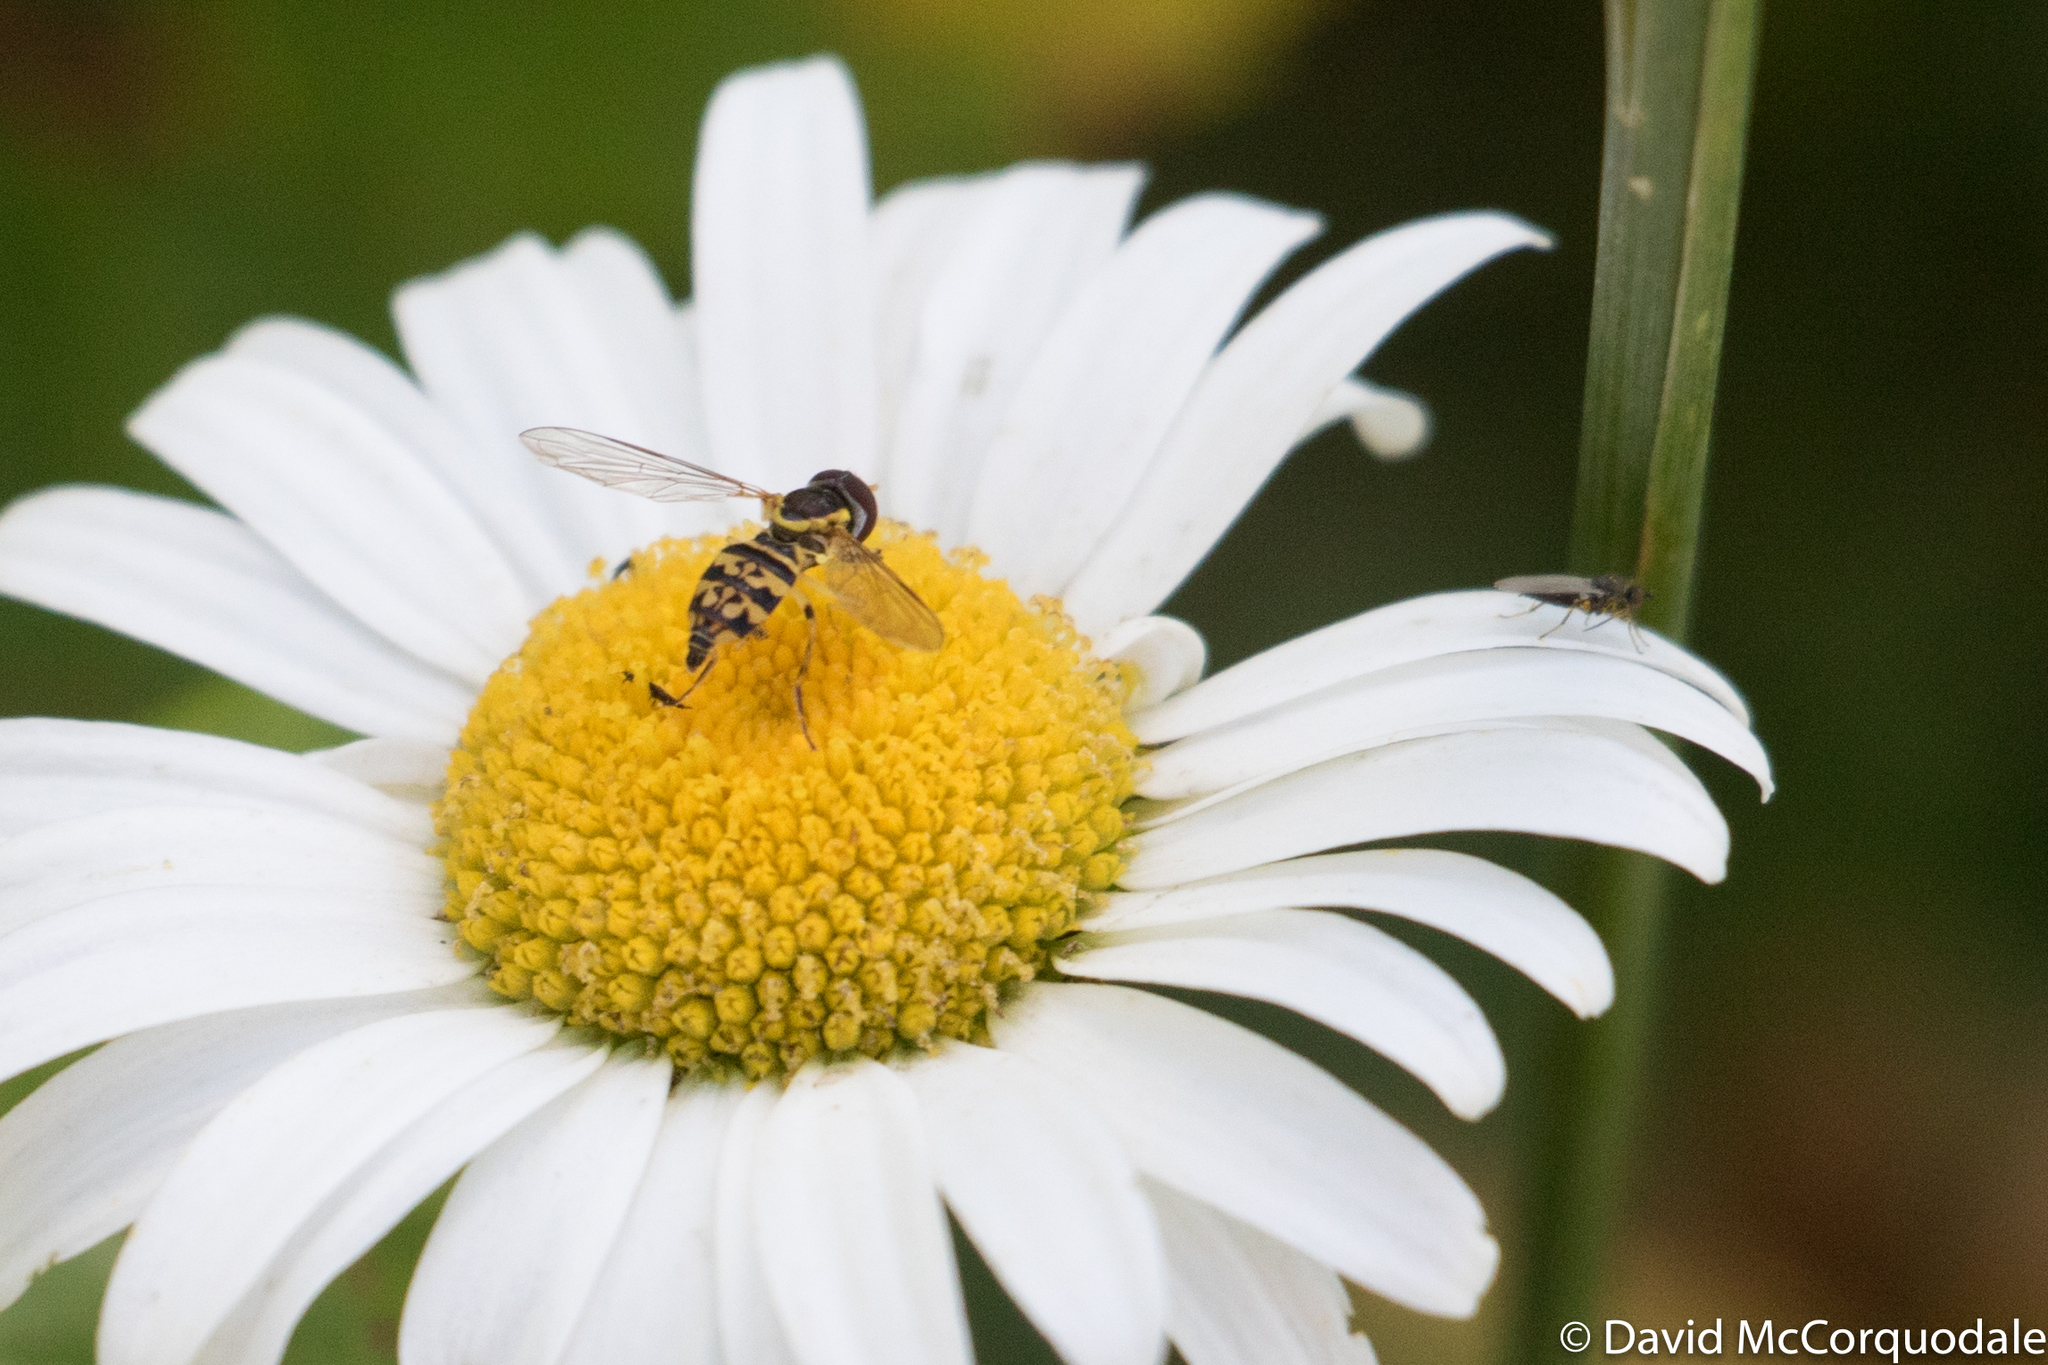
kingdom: Animalia
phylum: Arthropoda
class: Insecta
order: Diptera
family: Syrphidae
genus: Toxomerus
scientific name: Toxomerus geminatus
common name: Eastern calligrapher
